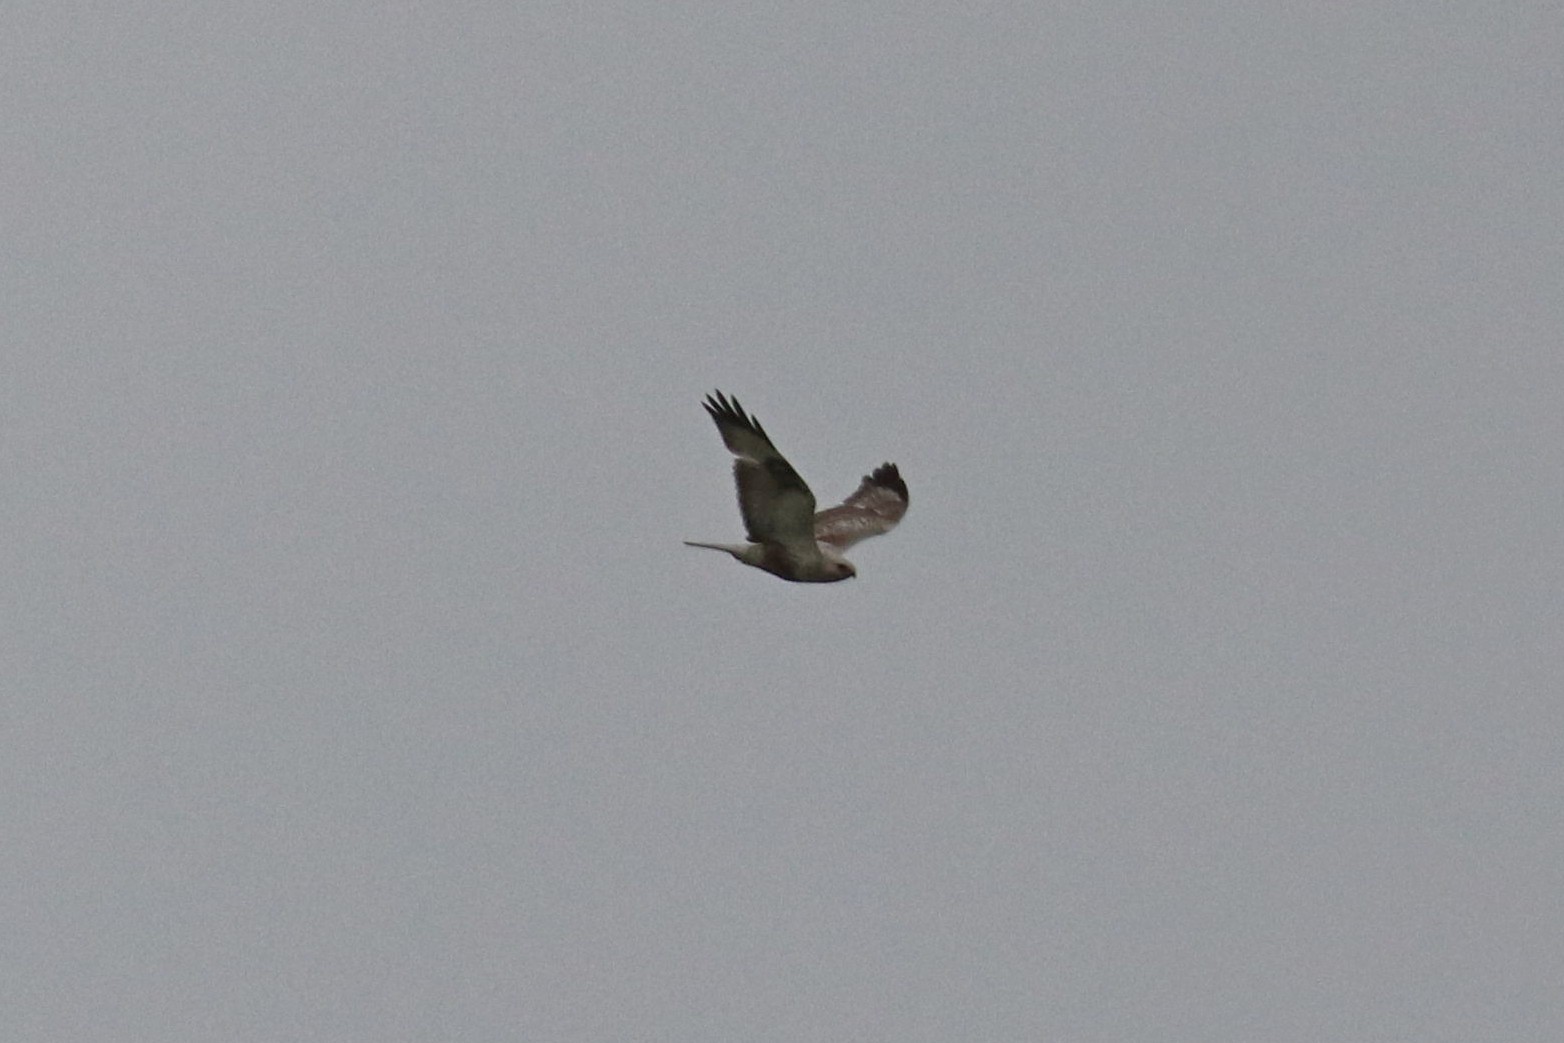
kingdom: Animalia
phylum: Chordata
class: Aves
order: Accipitriformes
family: Accipitridae
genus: Buteo
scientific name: Buteo lagopus
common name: Rough-legged buzzard
